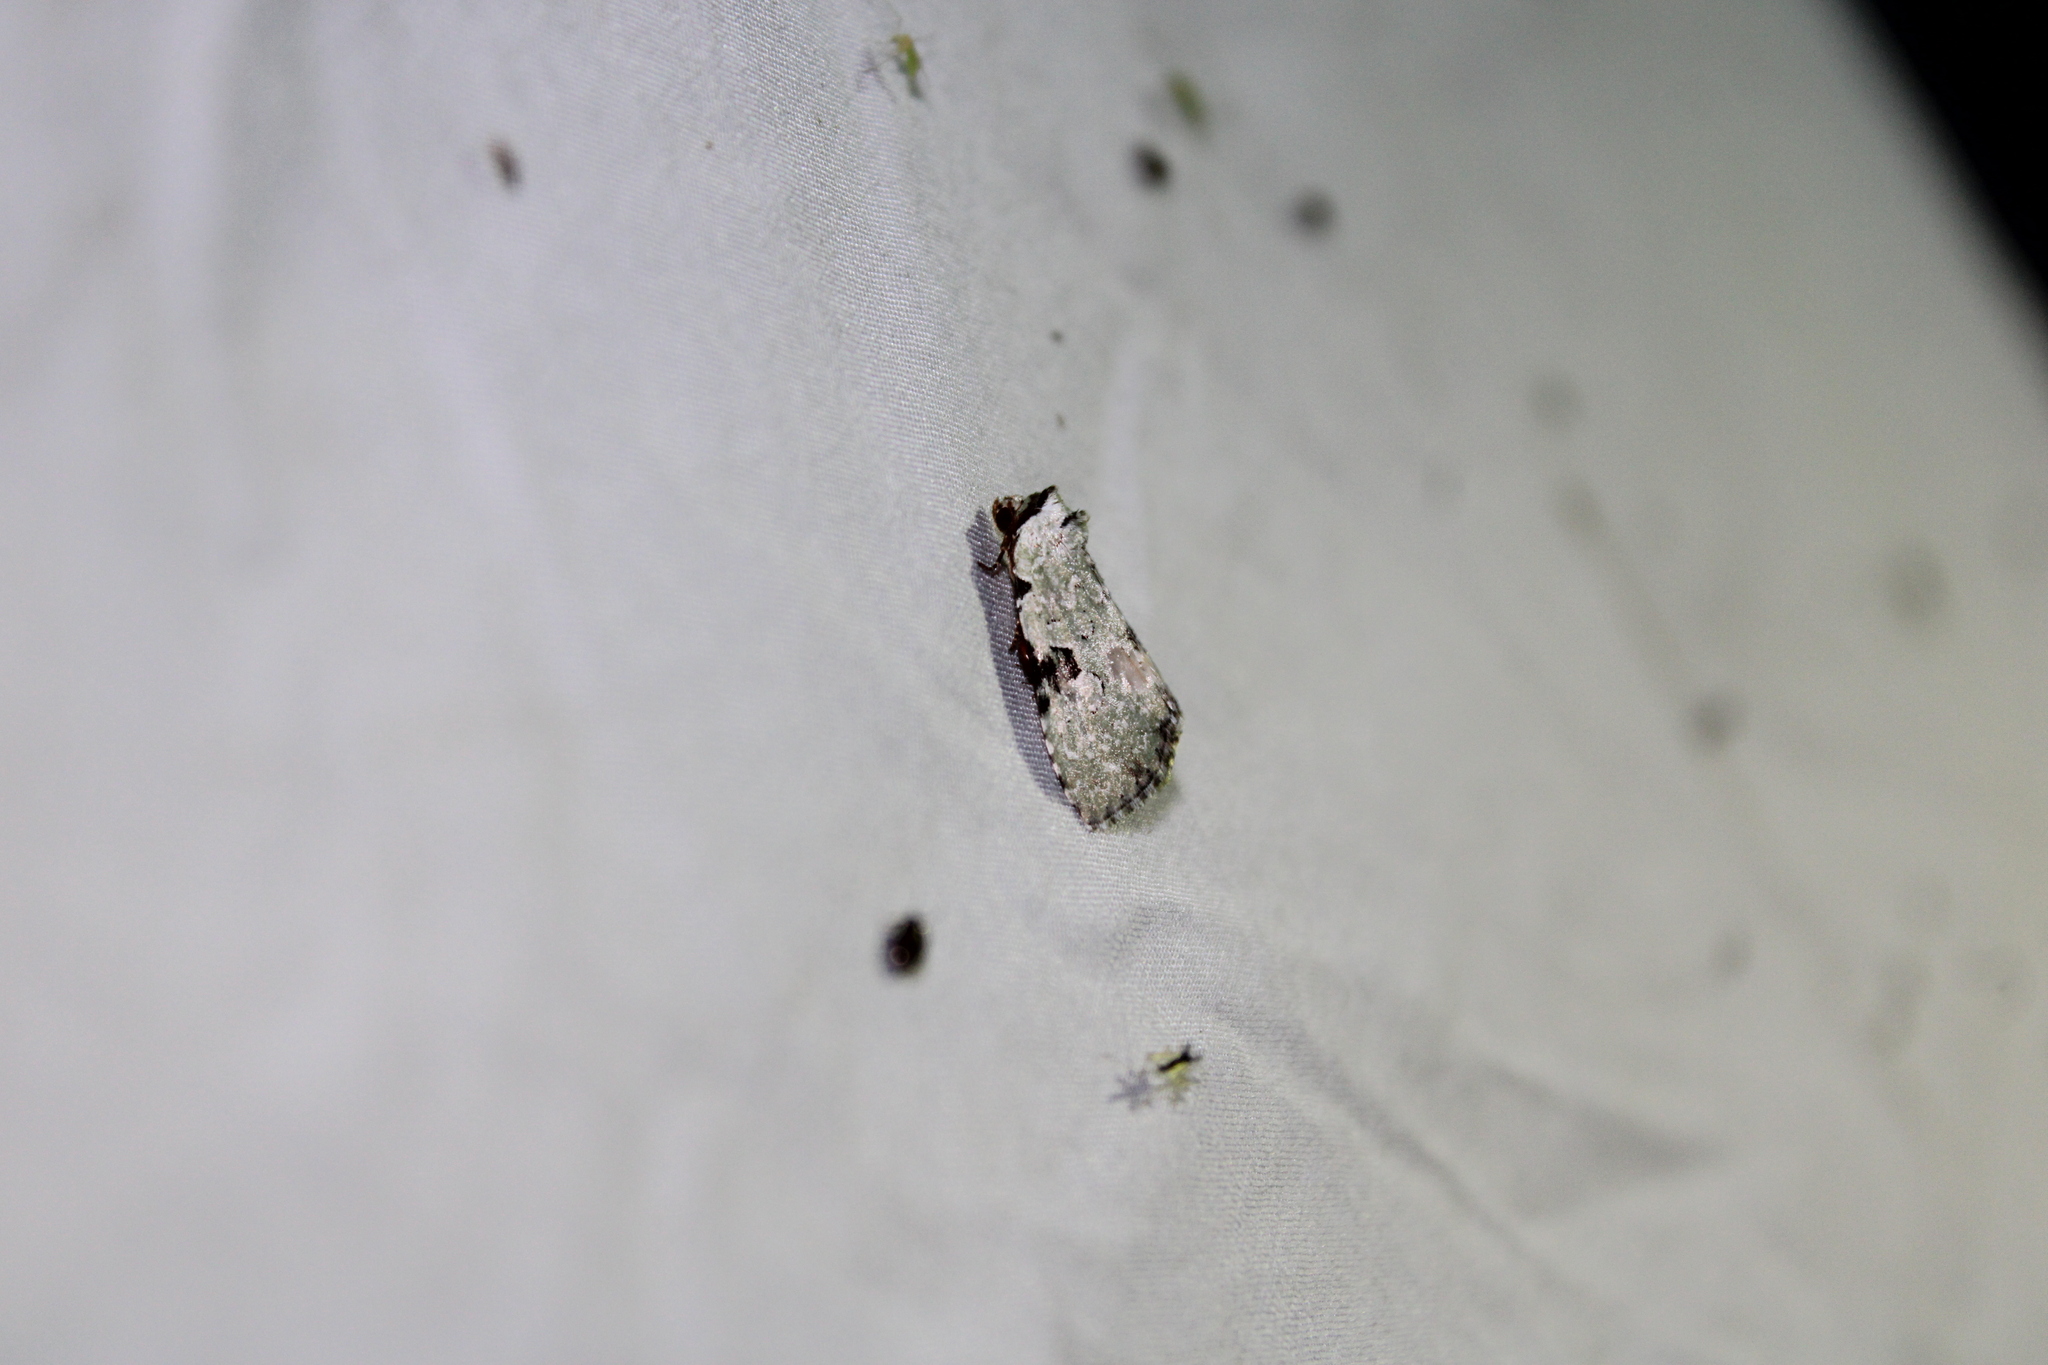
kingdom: Animalia
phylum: Arthropoda
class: Insecta
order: Lepidoptera
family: Noctuidae
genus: Leuconycta
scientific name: Leuconycta diphteroides
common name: Green leuconycta moth
